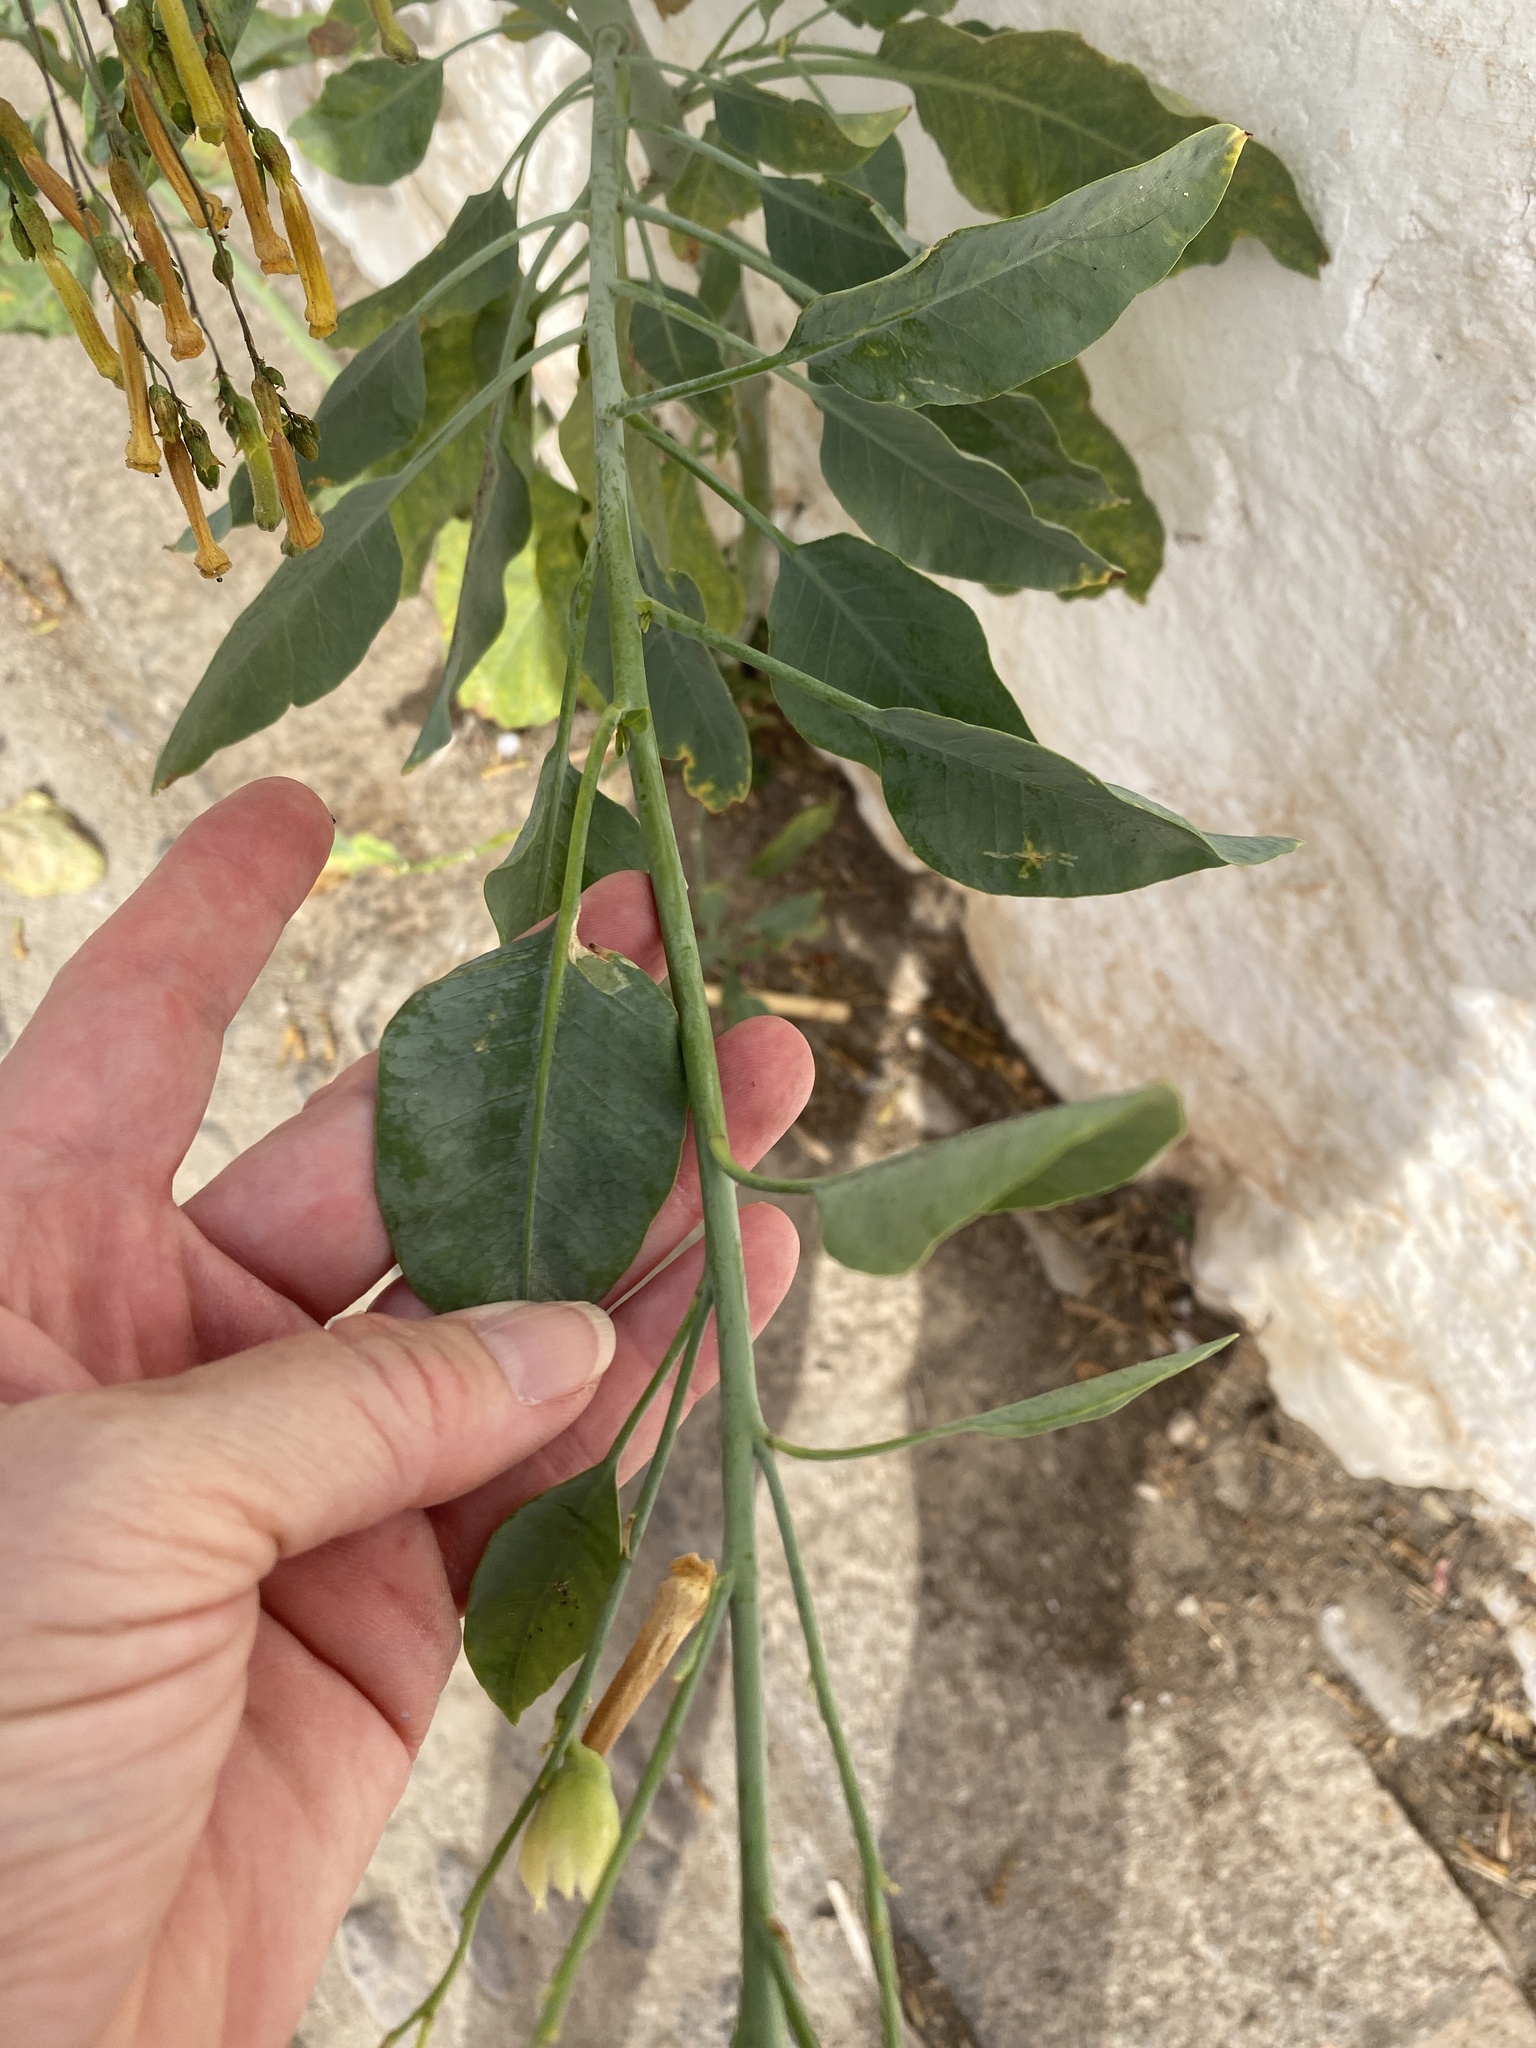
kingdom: Plantae
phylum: Tracheophyta
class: Magnoliopsida
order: Solanales
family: Solanaceae
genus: Nicotiana
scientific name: Nicotiana glauca
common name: Tree tobacco
